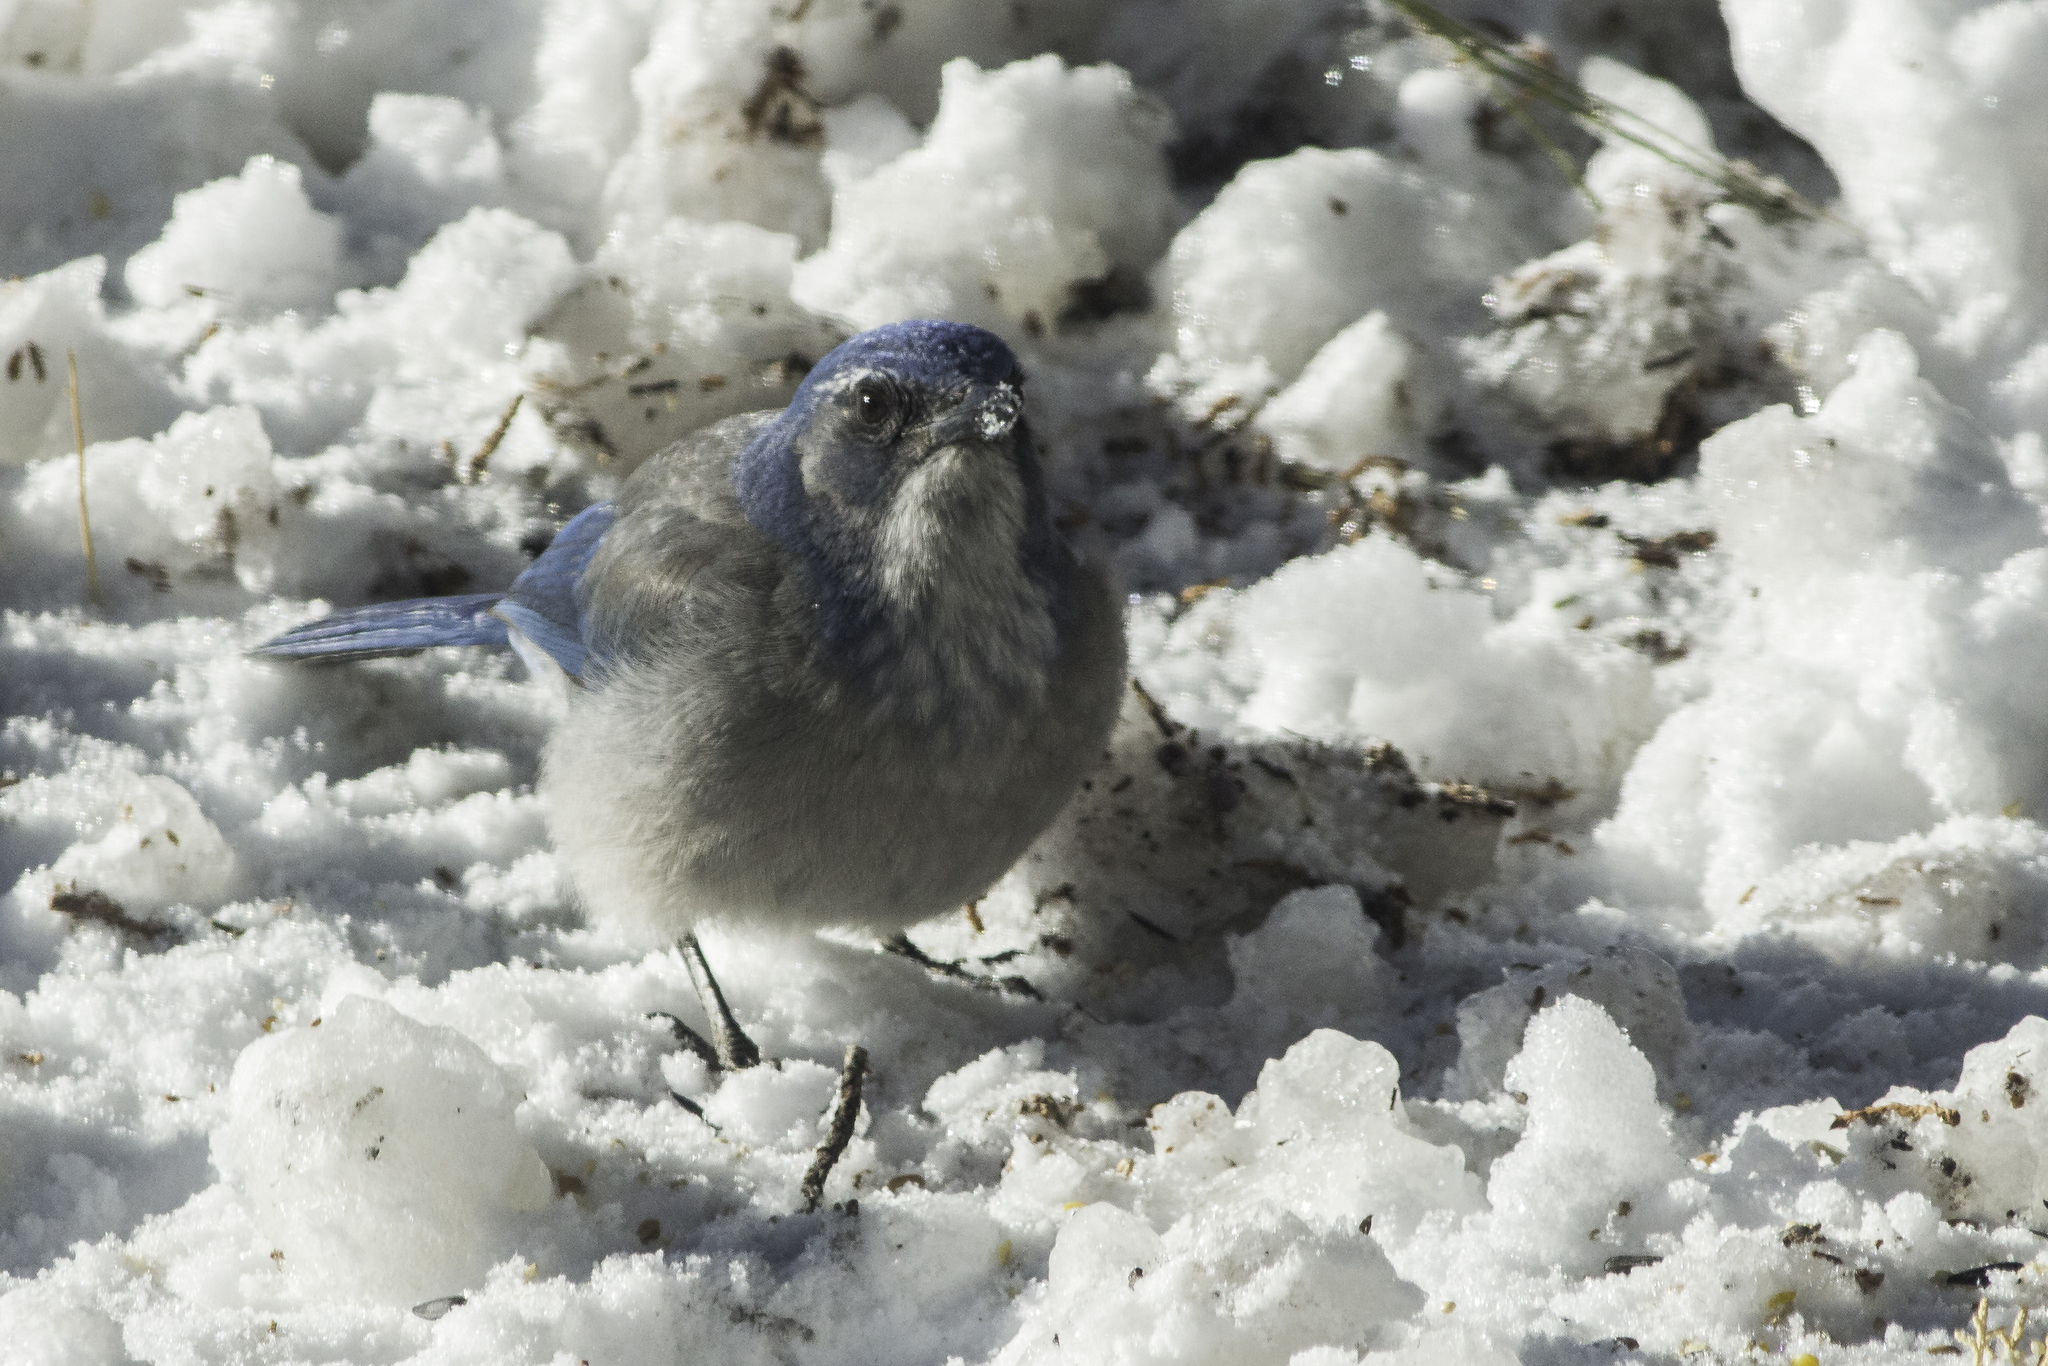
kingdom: Animalia
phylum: Chordata
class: Aves
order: Passeriformes
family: Corvidae
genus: Aphelocoma
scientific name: Aphelocoma woodhouseii
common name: Woodhouse's scrub-jay
